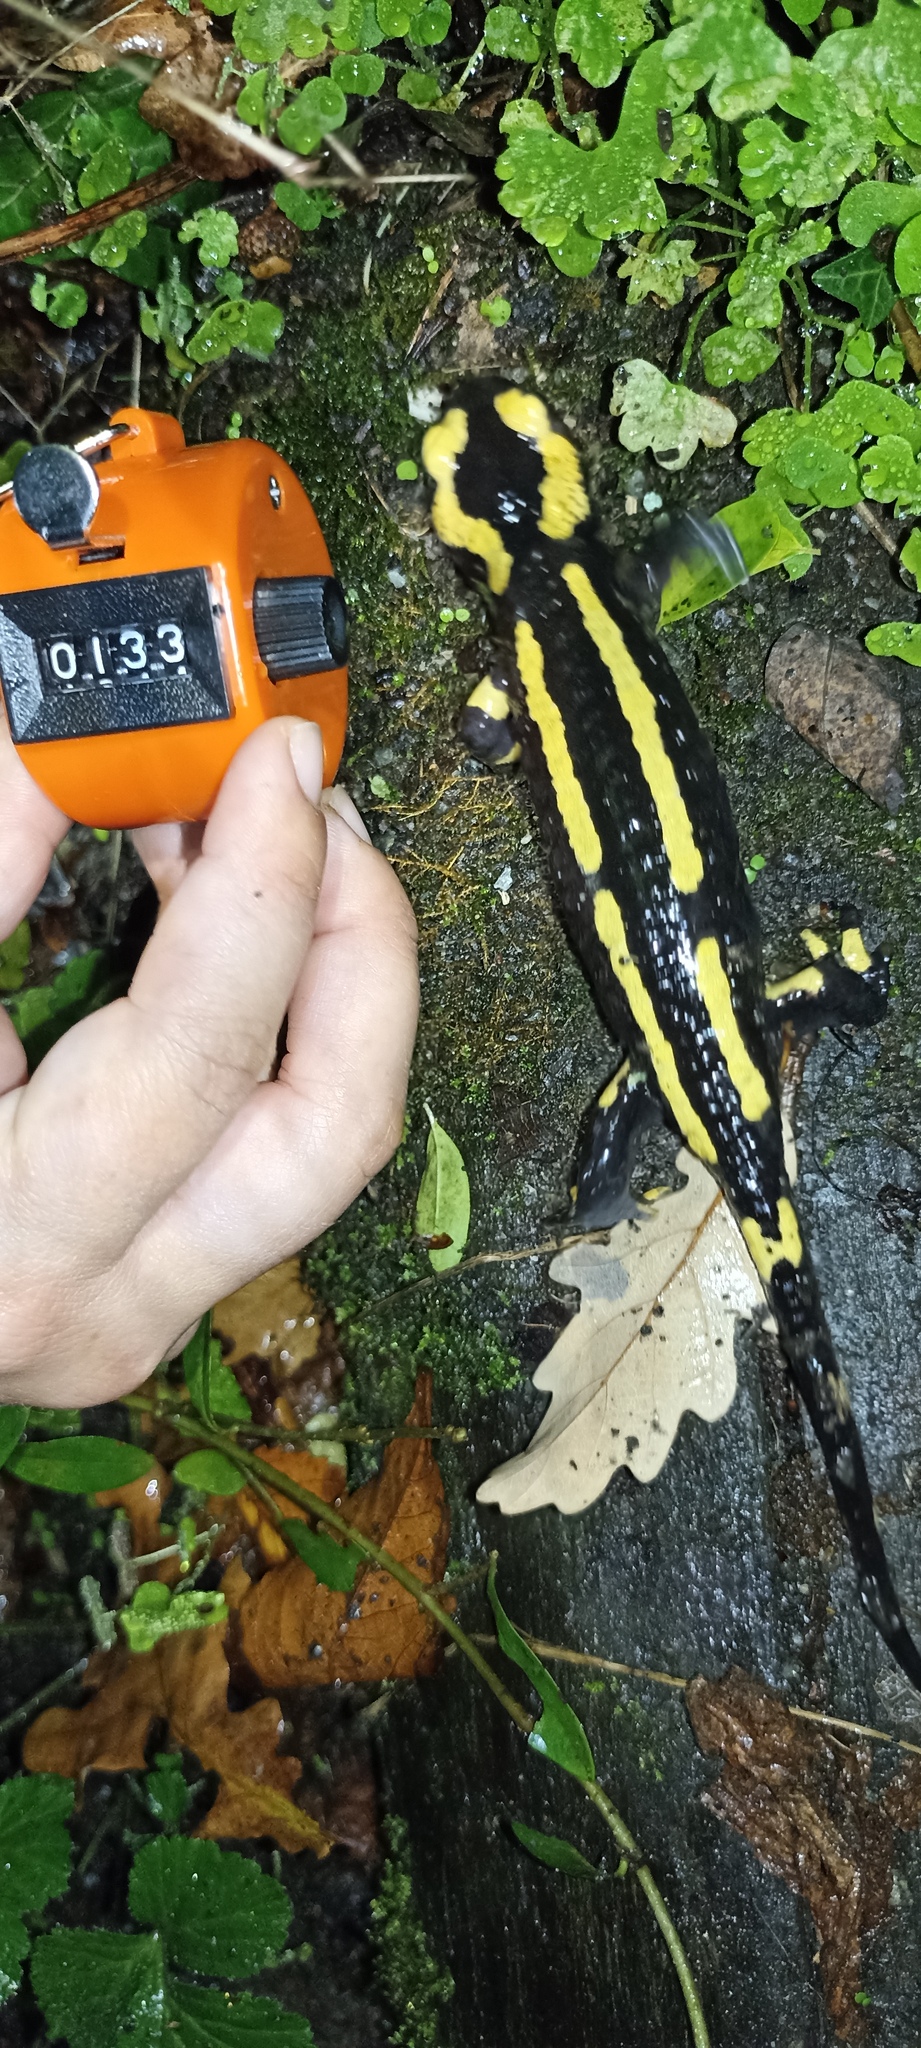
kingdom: Animalia
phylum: Chordata
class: Amphibia
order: Caudata
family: Salamandridae
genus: Salamandra
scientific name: Salamandra salamandra
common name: Fire salamander
